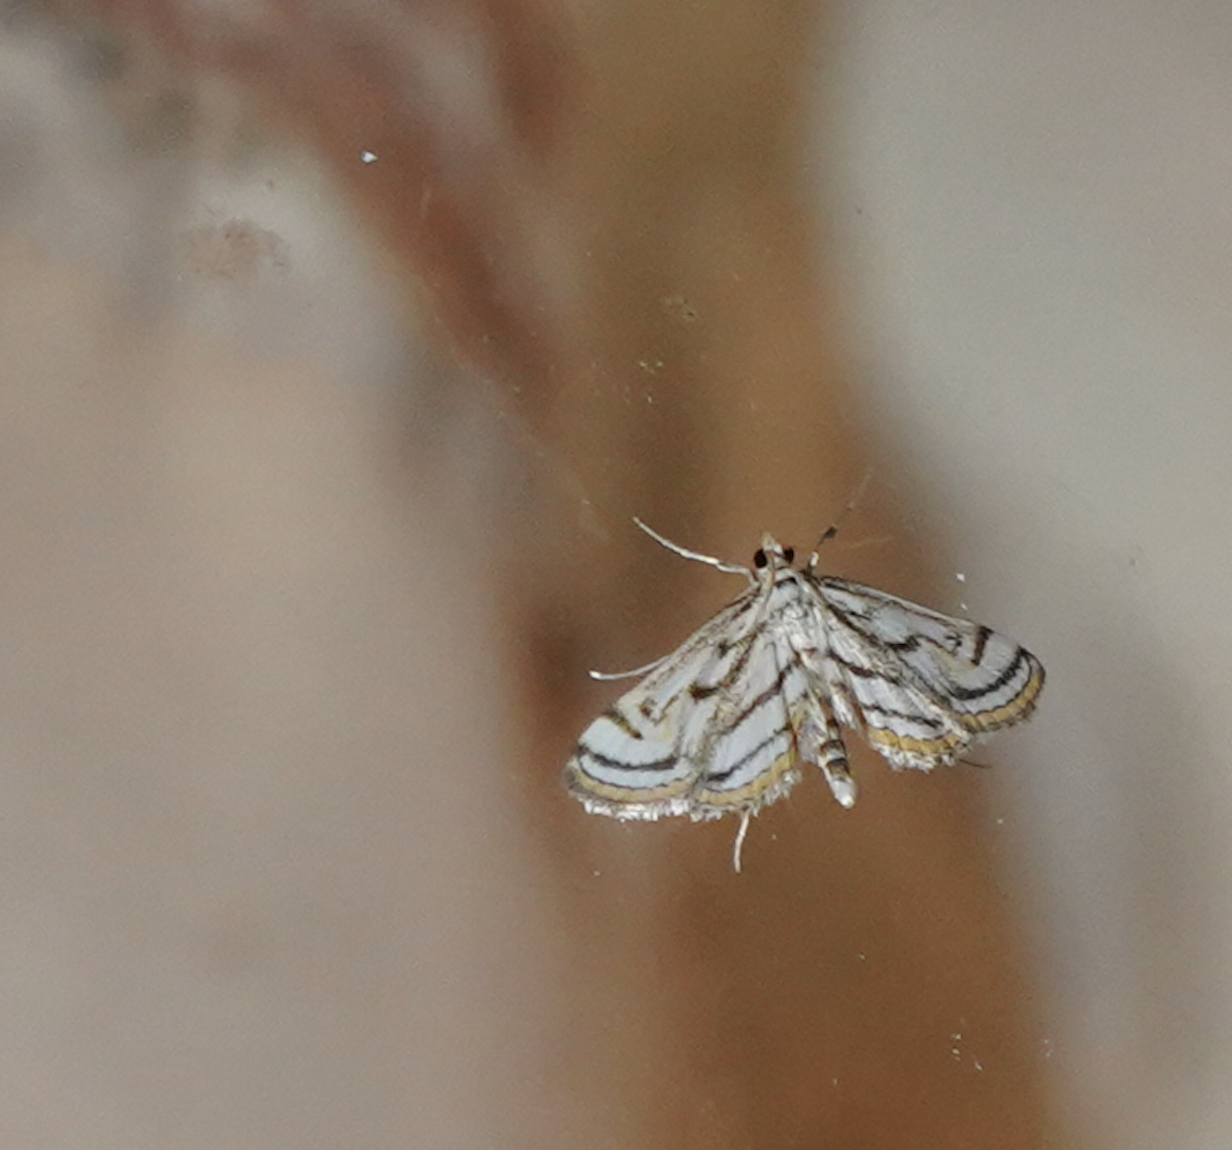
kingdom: Animalia
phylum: Arthropoda
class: Insecta
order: Lepidoptera
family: Crambidae
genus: Parapoynx
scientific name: Parapoynx badiusalis
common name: Chestnut-marked pondweed moth
